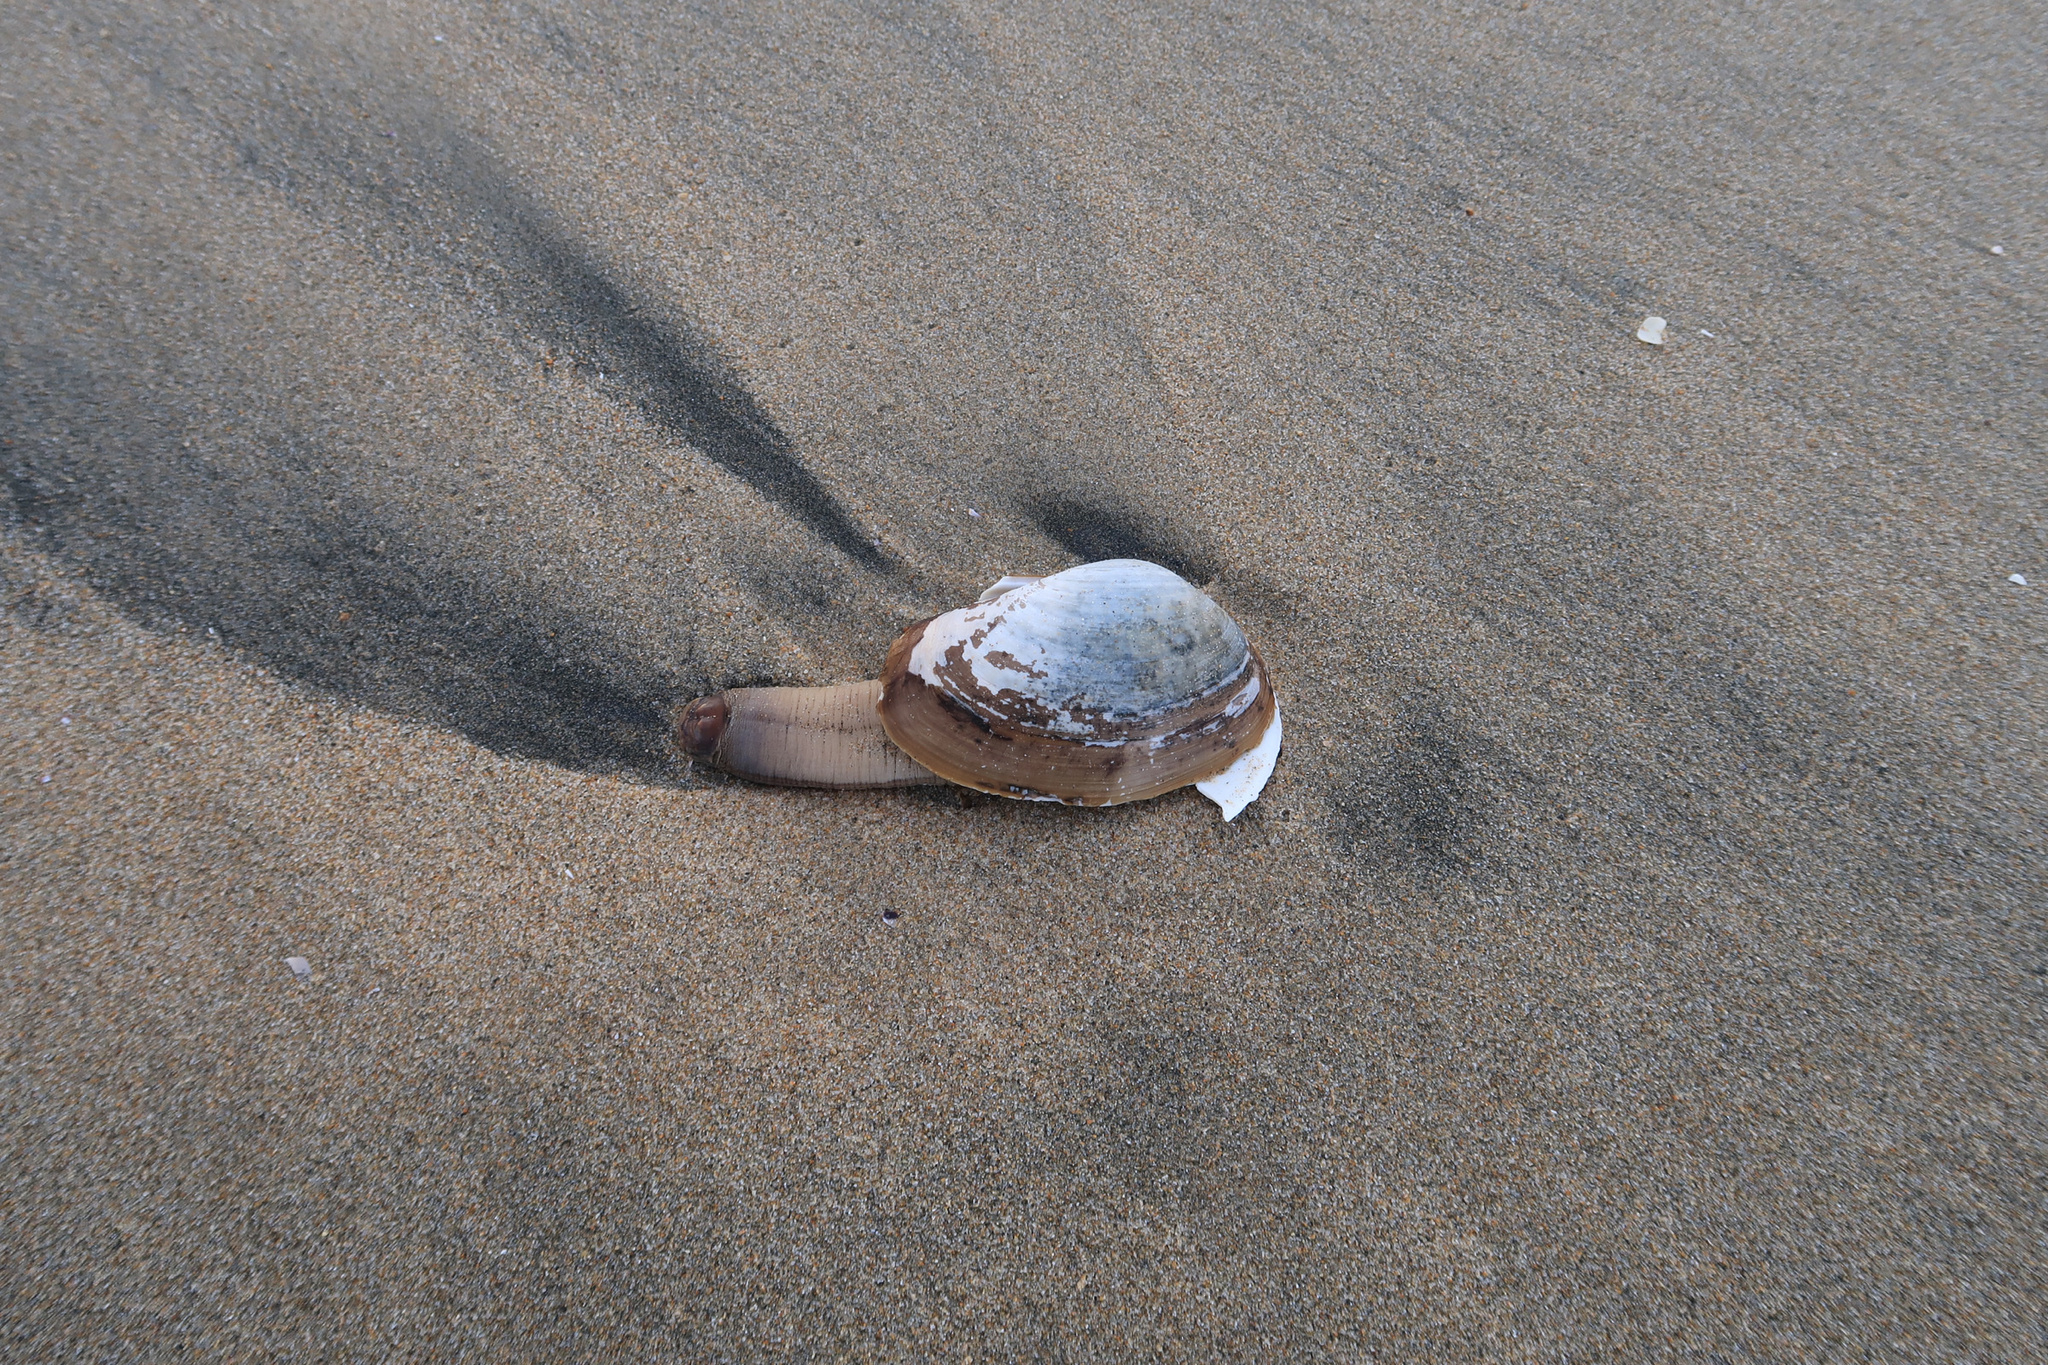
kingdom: Animalia
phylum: Mollusca
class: Bivalvia
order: Venerida
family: Mactridae
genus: Tresus
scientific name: Tresus nuttallii
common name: Pacific gaper clam
